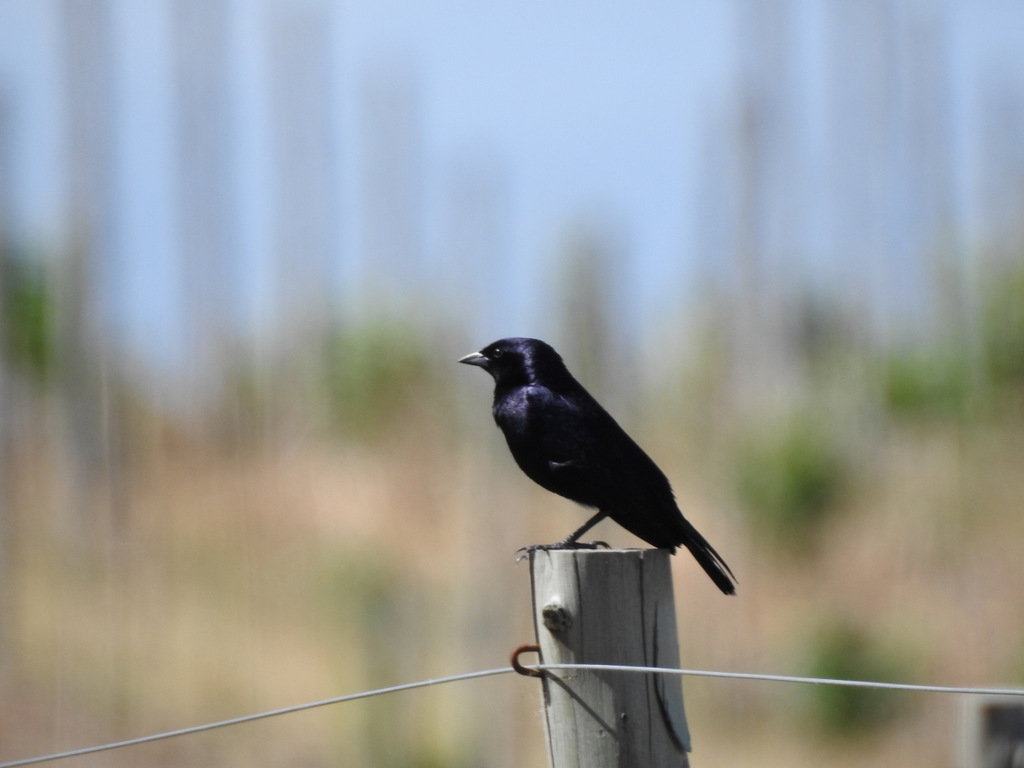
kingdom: Animalia
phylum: Chordata
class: Aves
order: Passeriformes
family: Icteridae
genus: Molothrus
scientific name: Molothrus bonariensis
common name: Shiny cowbird
